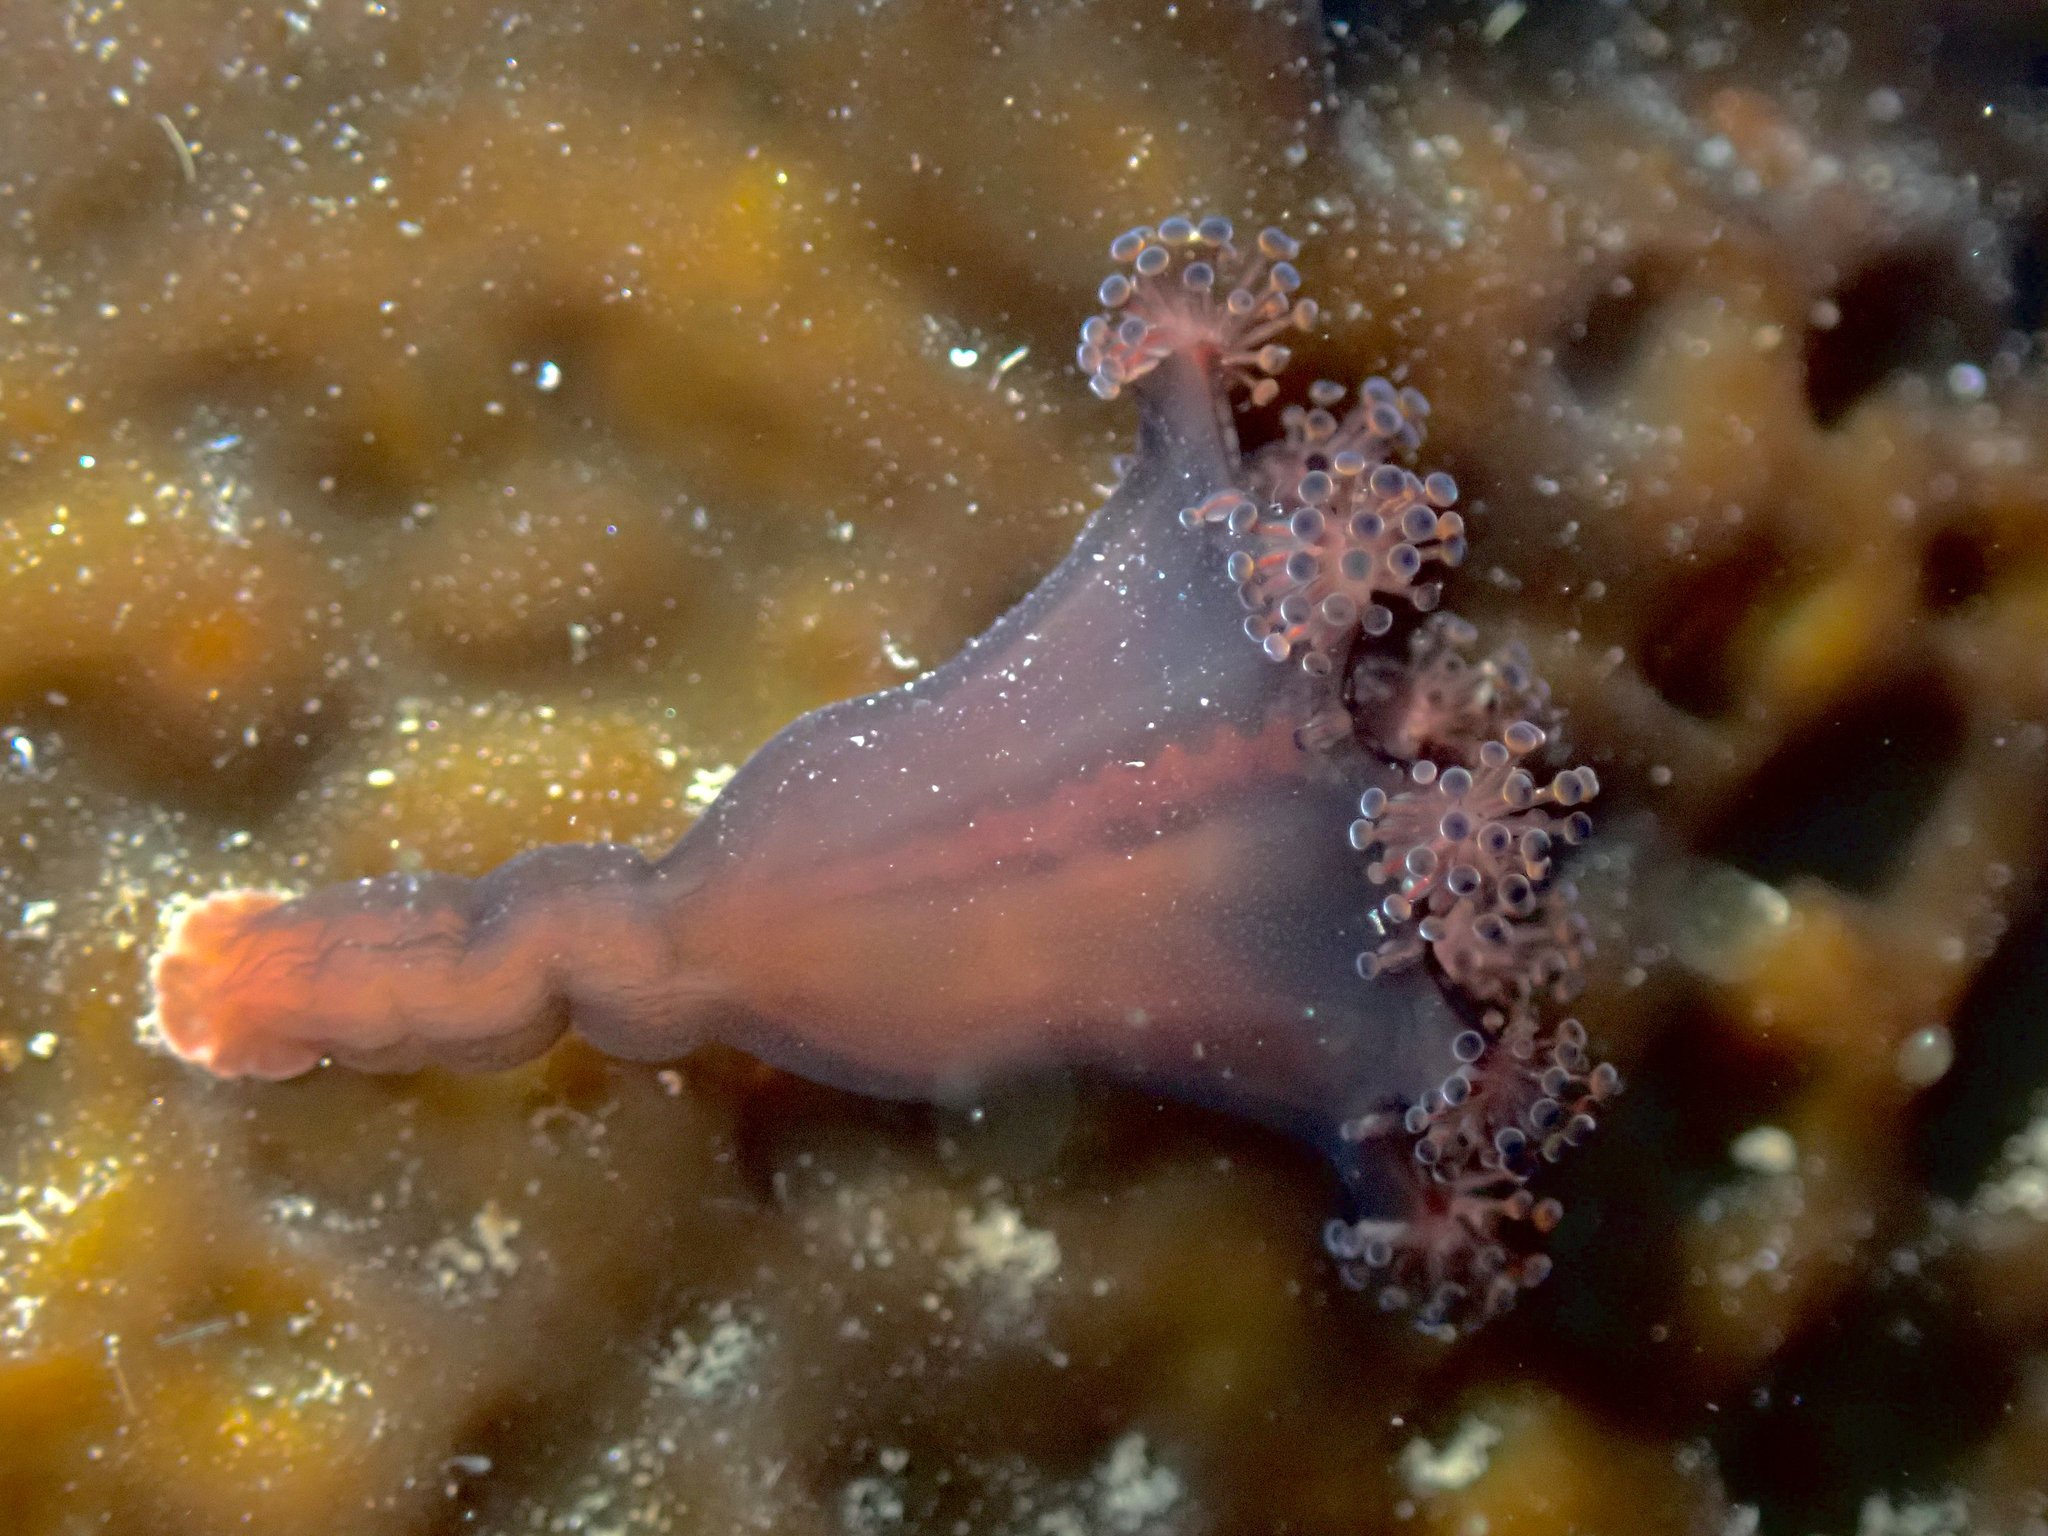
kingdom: Animalia
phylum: Cnidaria
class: Staurozoa
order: Stauromedusae
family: Lucernariidae
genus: Lucernaria
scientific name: Lucernaria bathyphila
